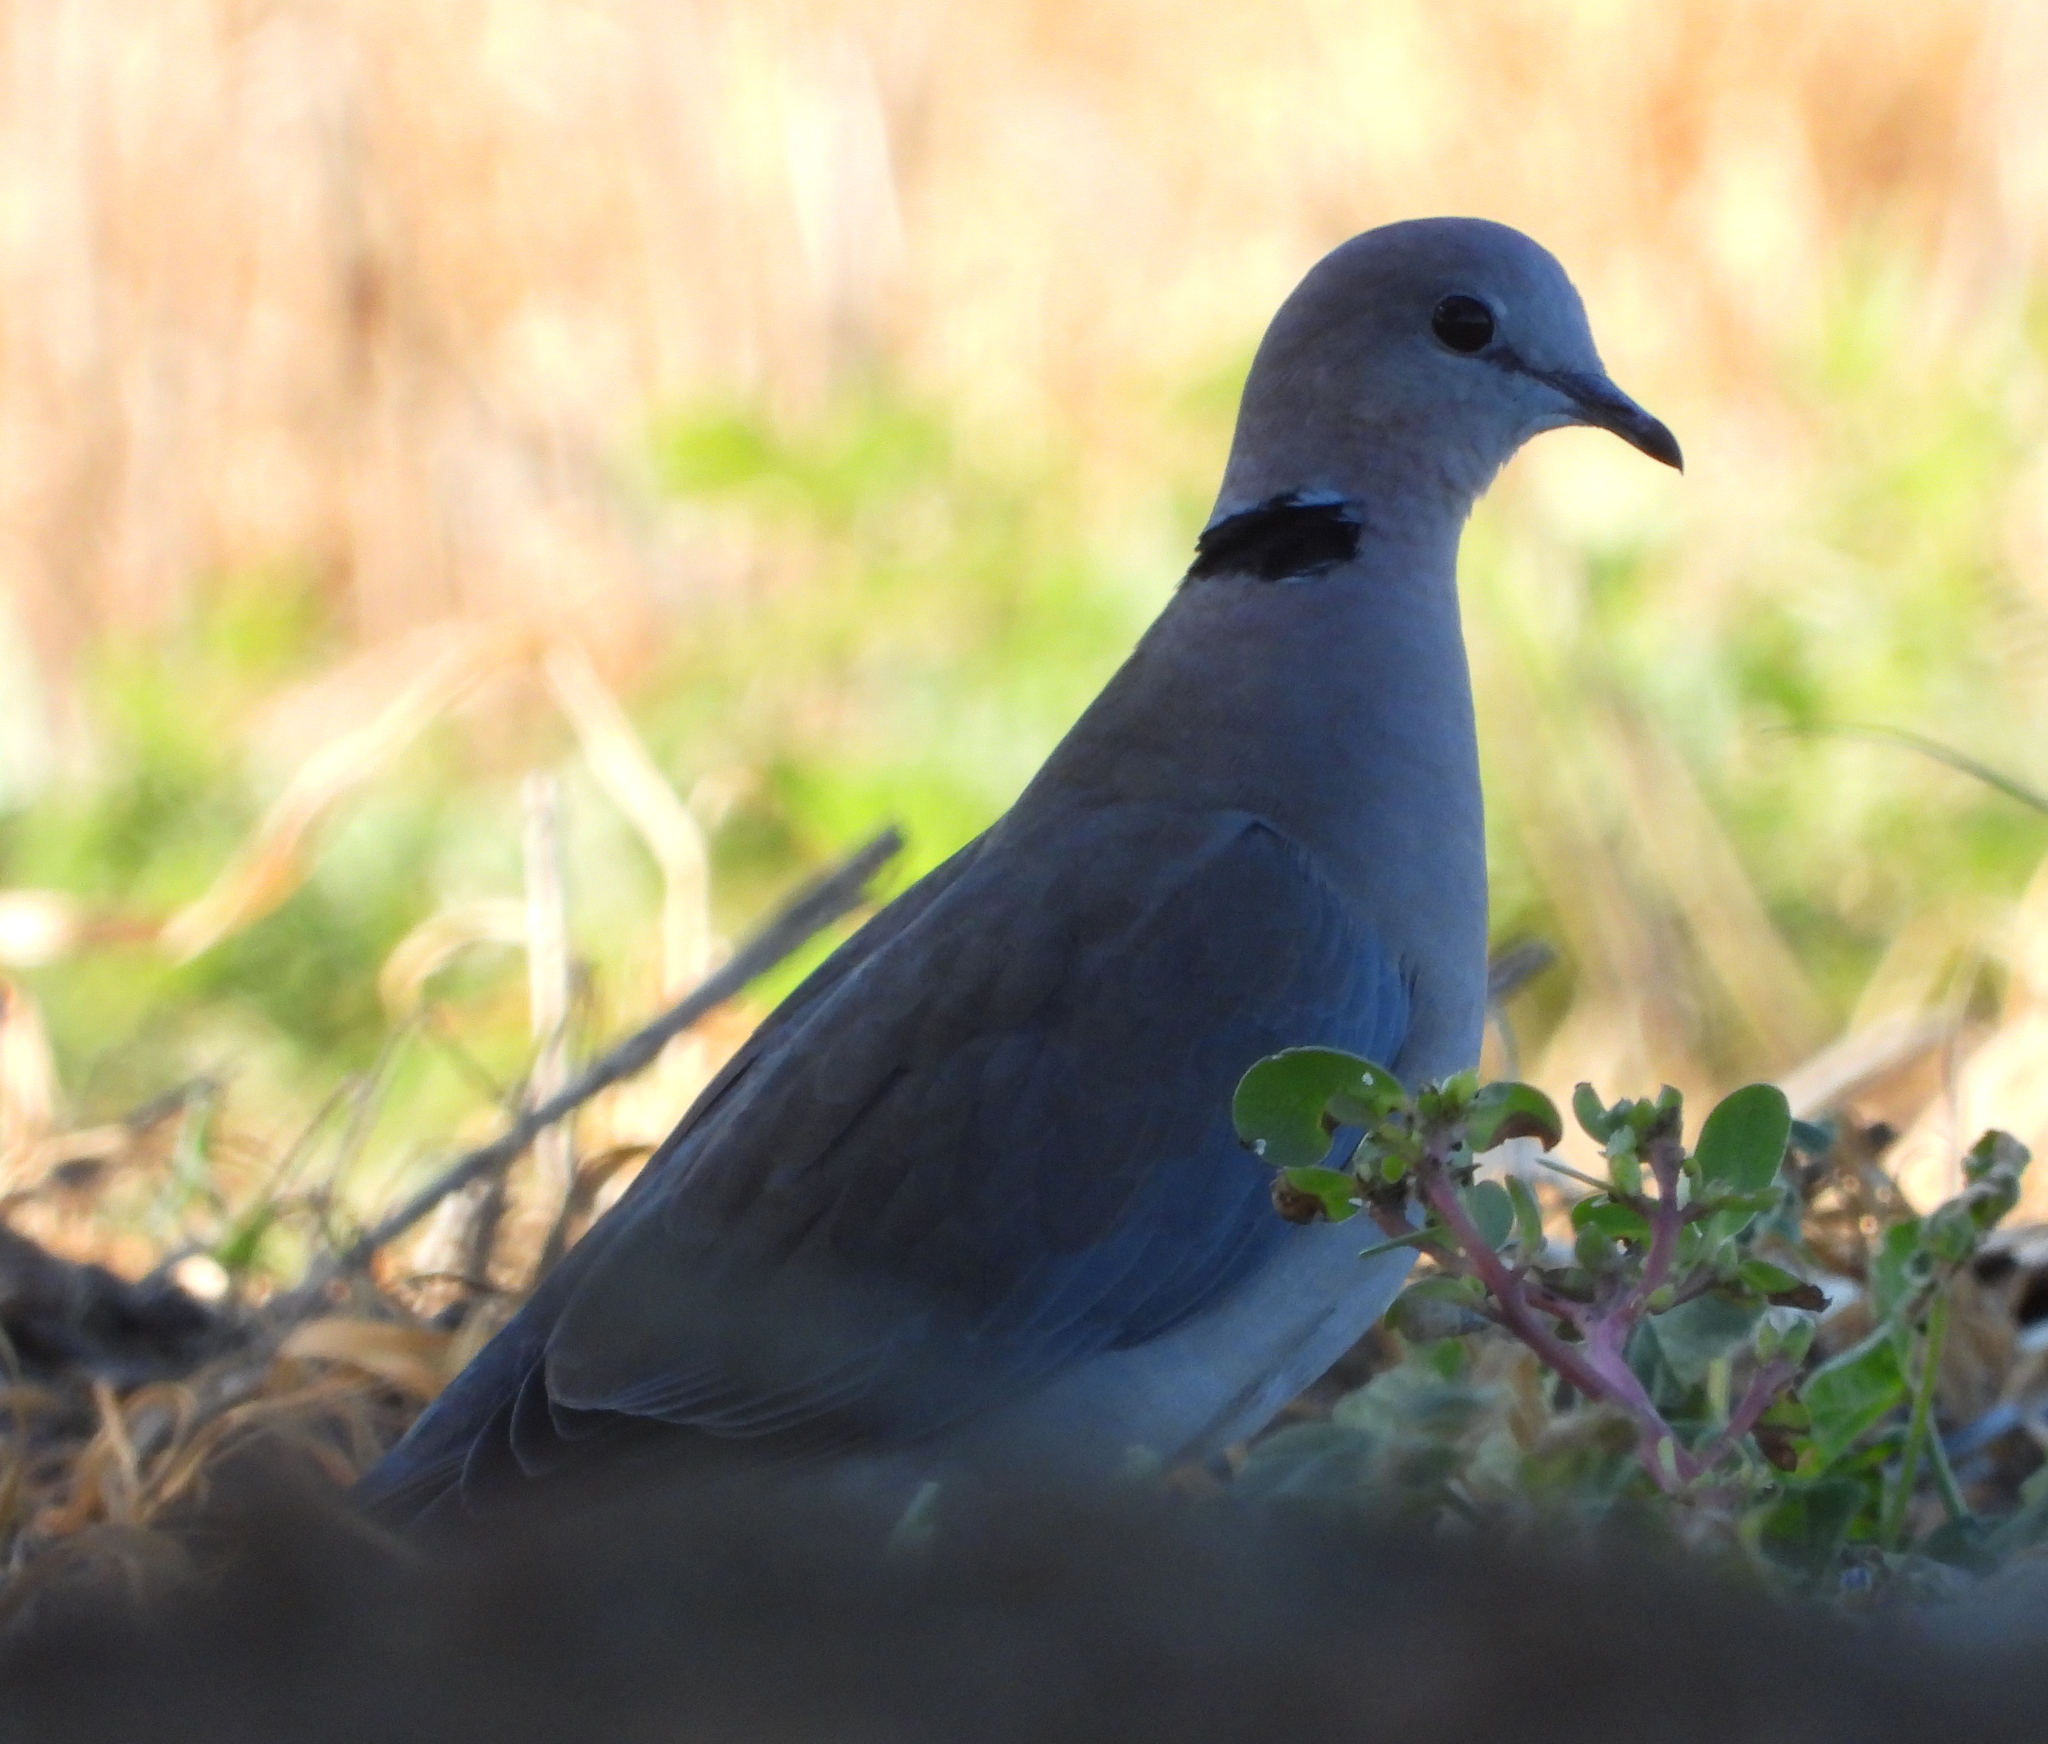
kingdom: Animalia
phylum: Chordata
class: Aves
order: Columbiformes
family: Columbidae
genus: Streptopelia
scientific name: Streptopelia capicola
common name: Ring-necked dove
